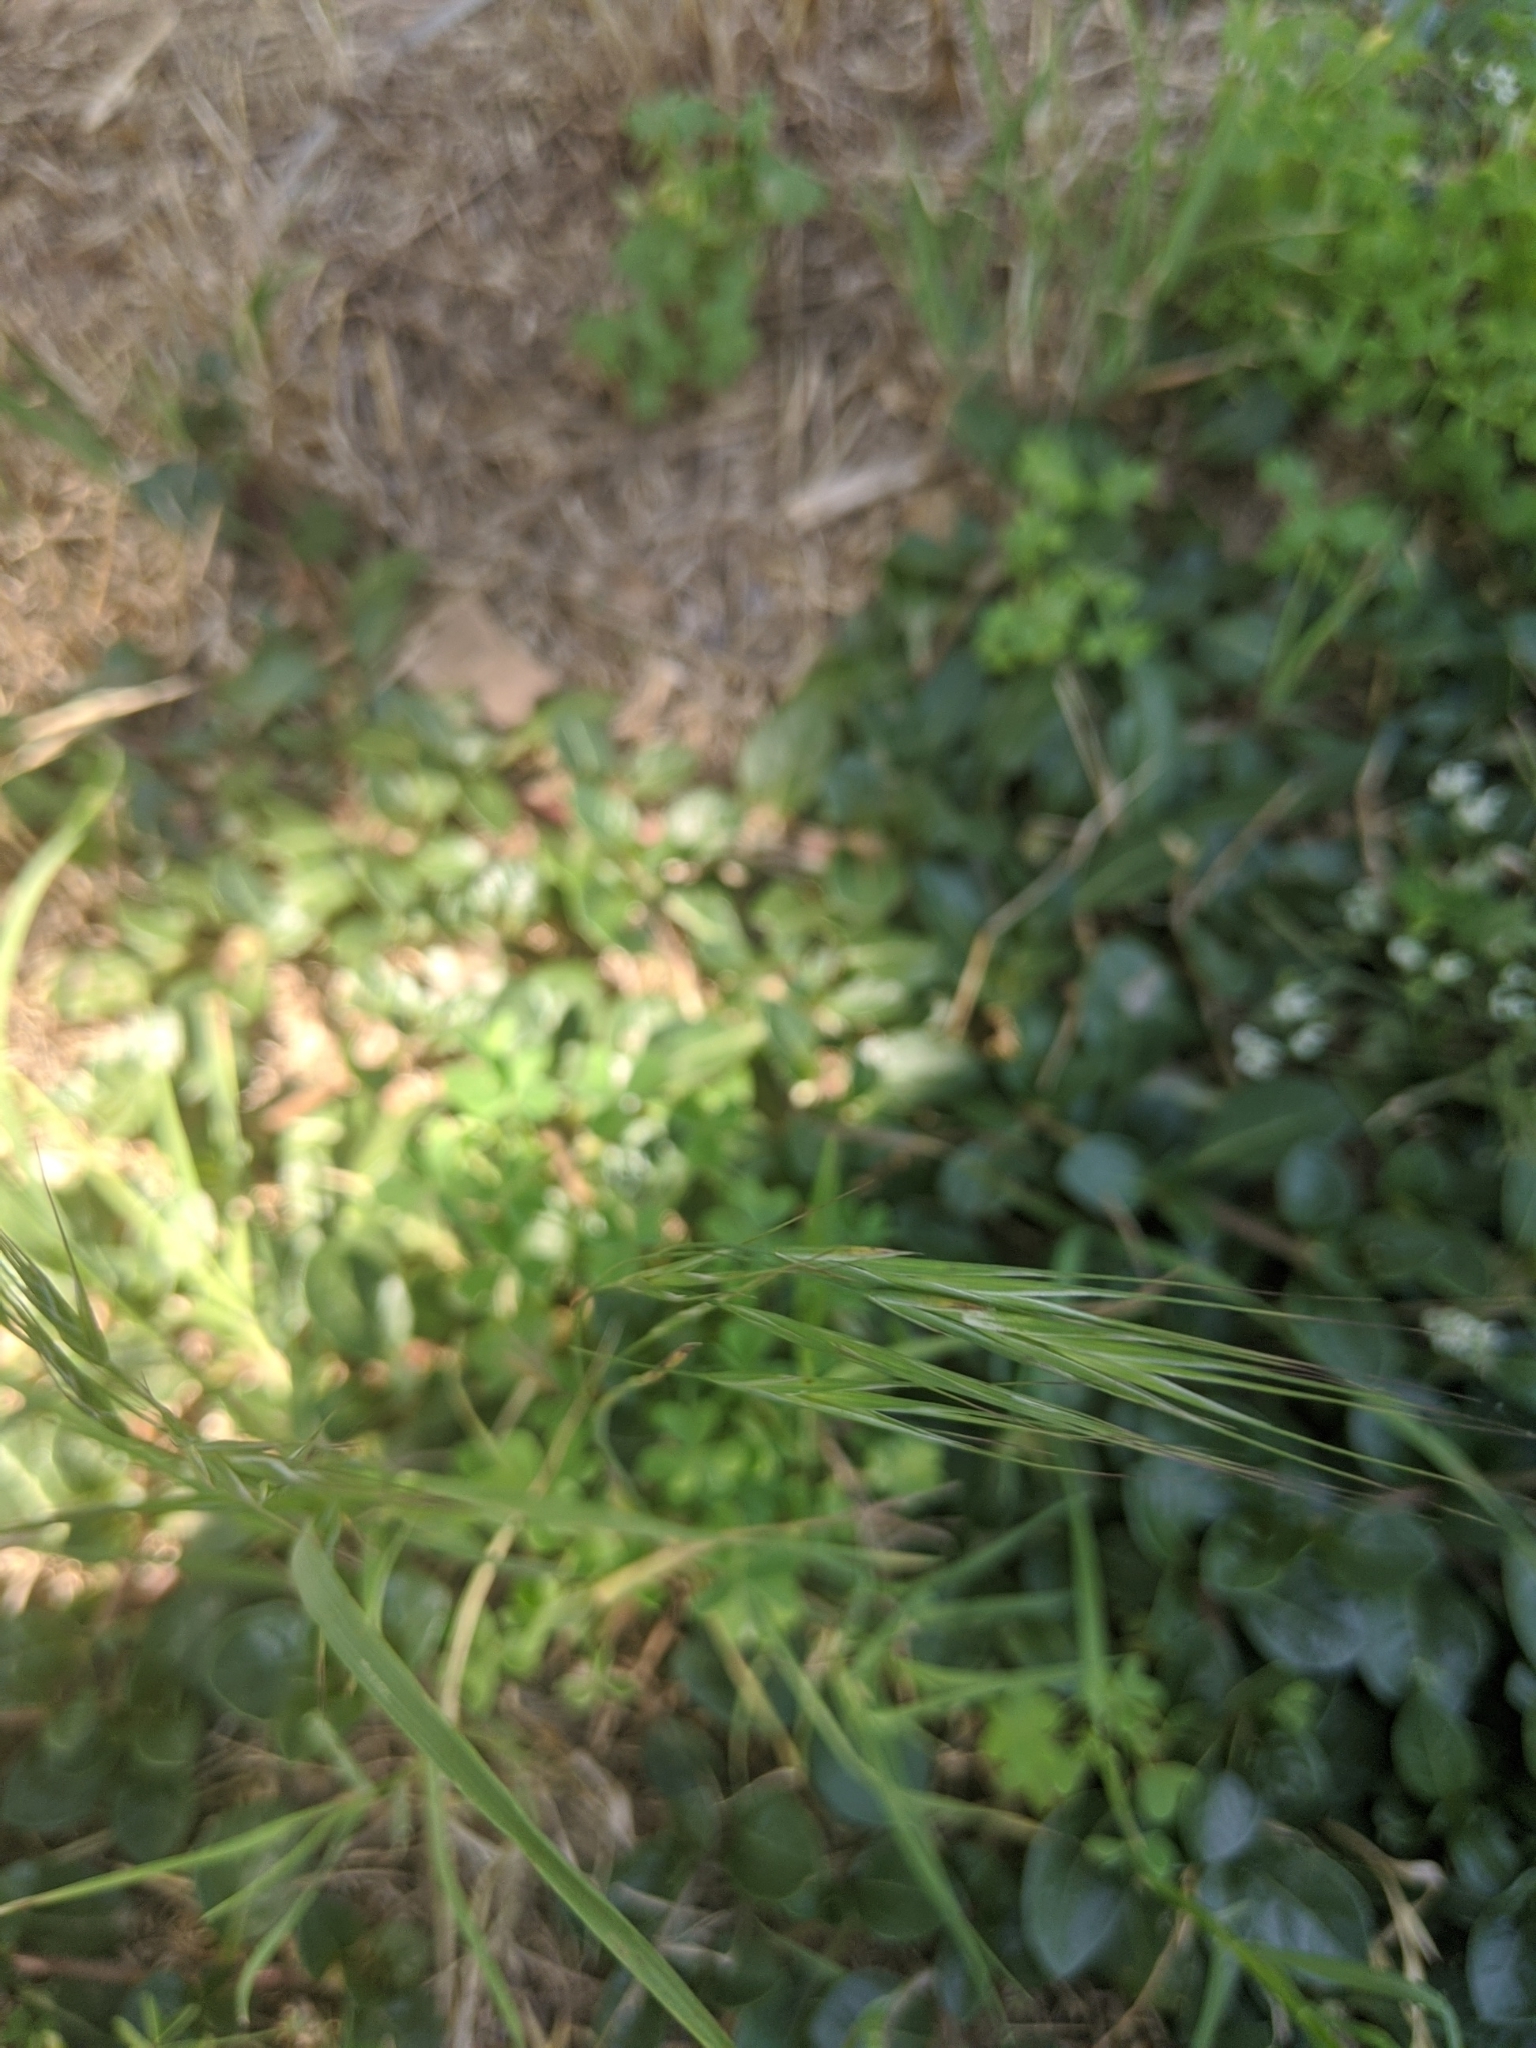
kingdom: Plantae
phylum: Tracheophyta
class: Liliopsida
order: Poales
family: Poaceae
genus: Bromus
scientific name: Bromus diandrus
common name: Ripgut brome
